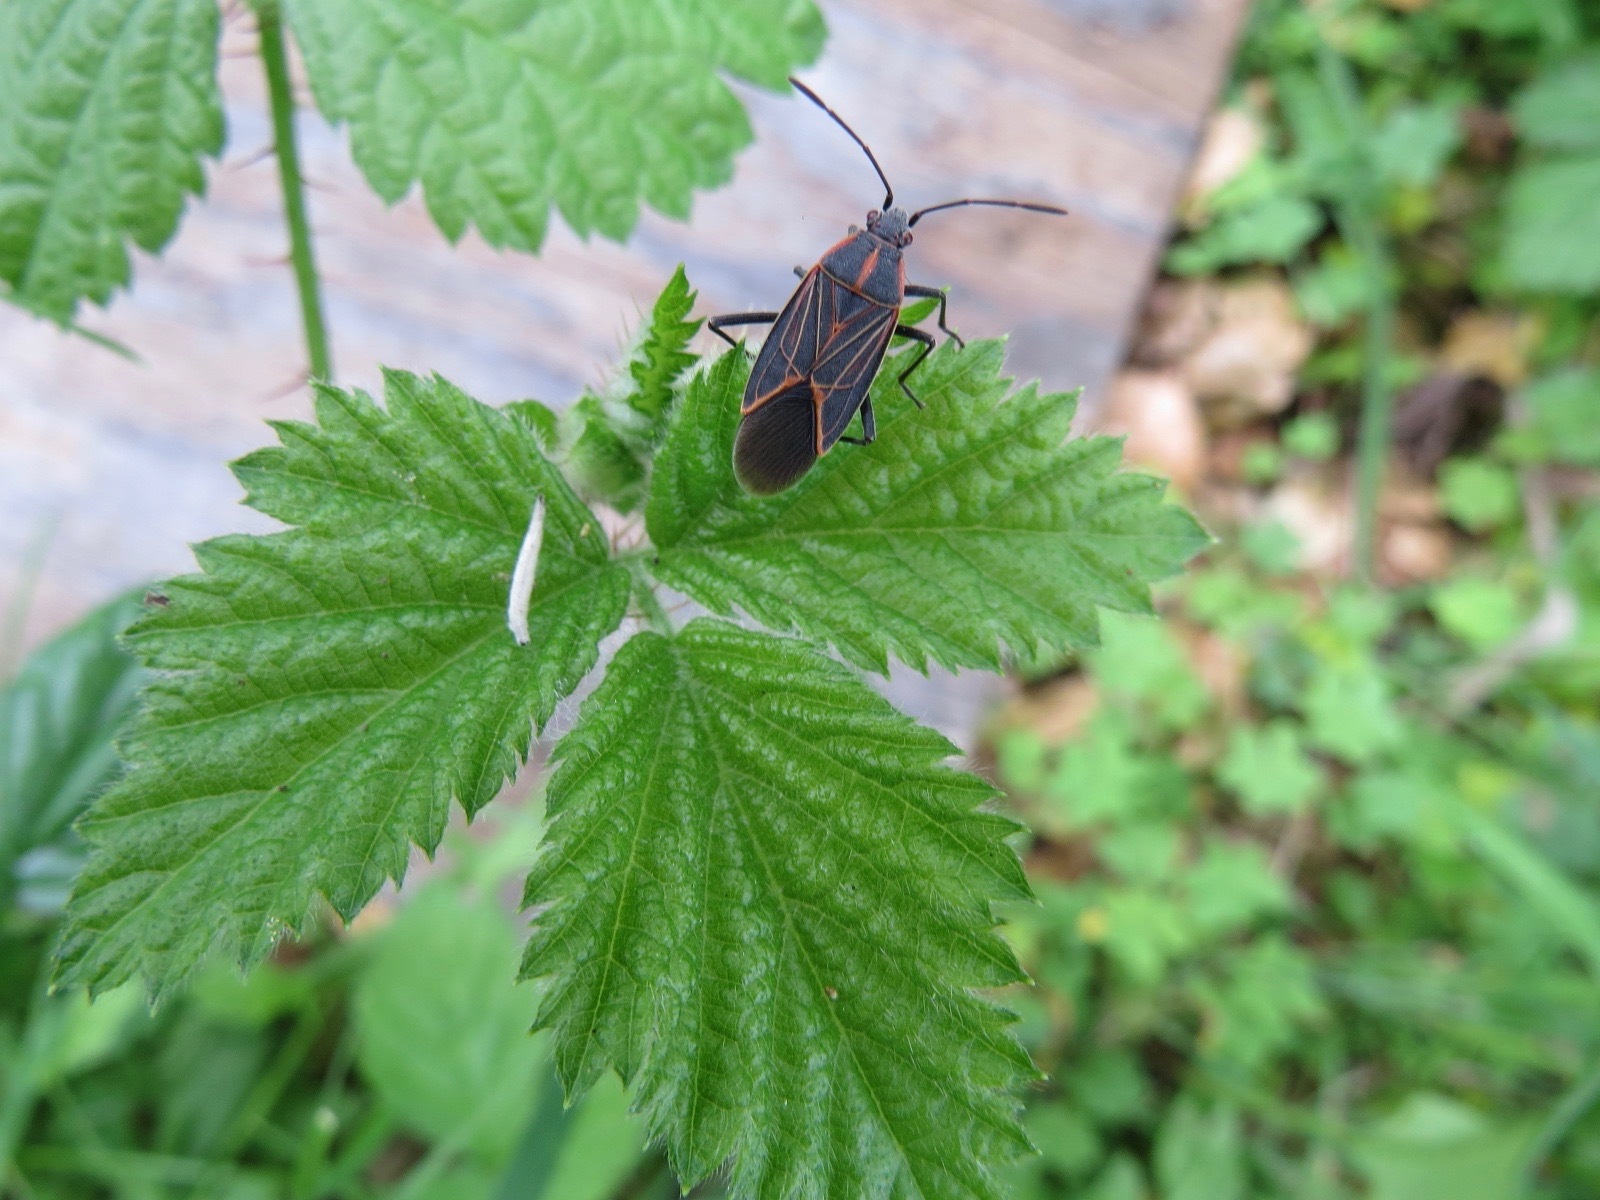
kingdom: Animalia
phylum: Arthropoda
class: Insecta
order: Hemiptera
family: Rhopalidae
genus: Boisea
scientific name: Boisea rubrolineata
